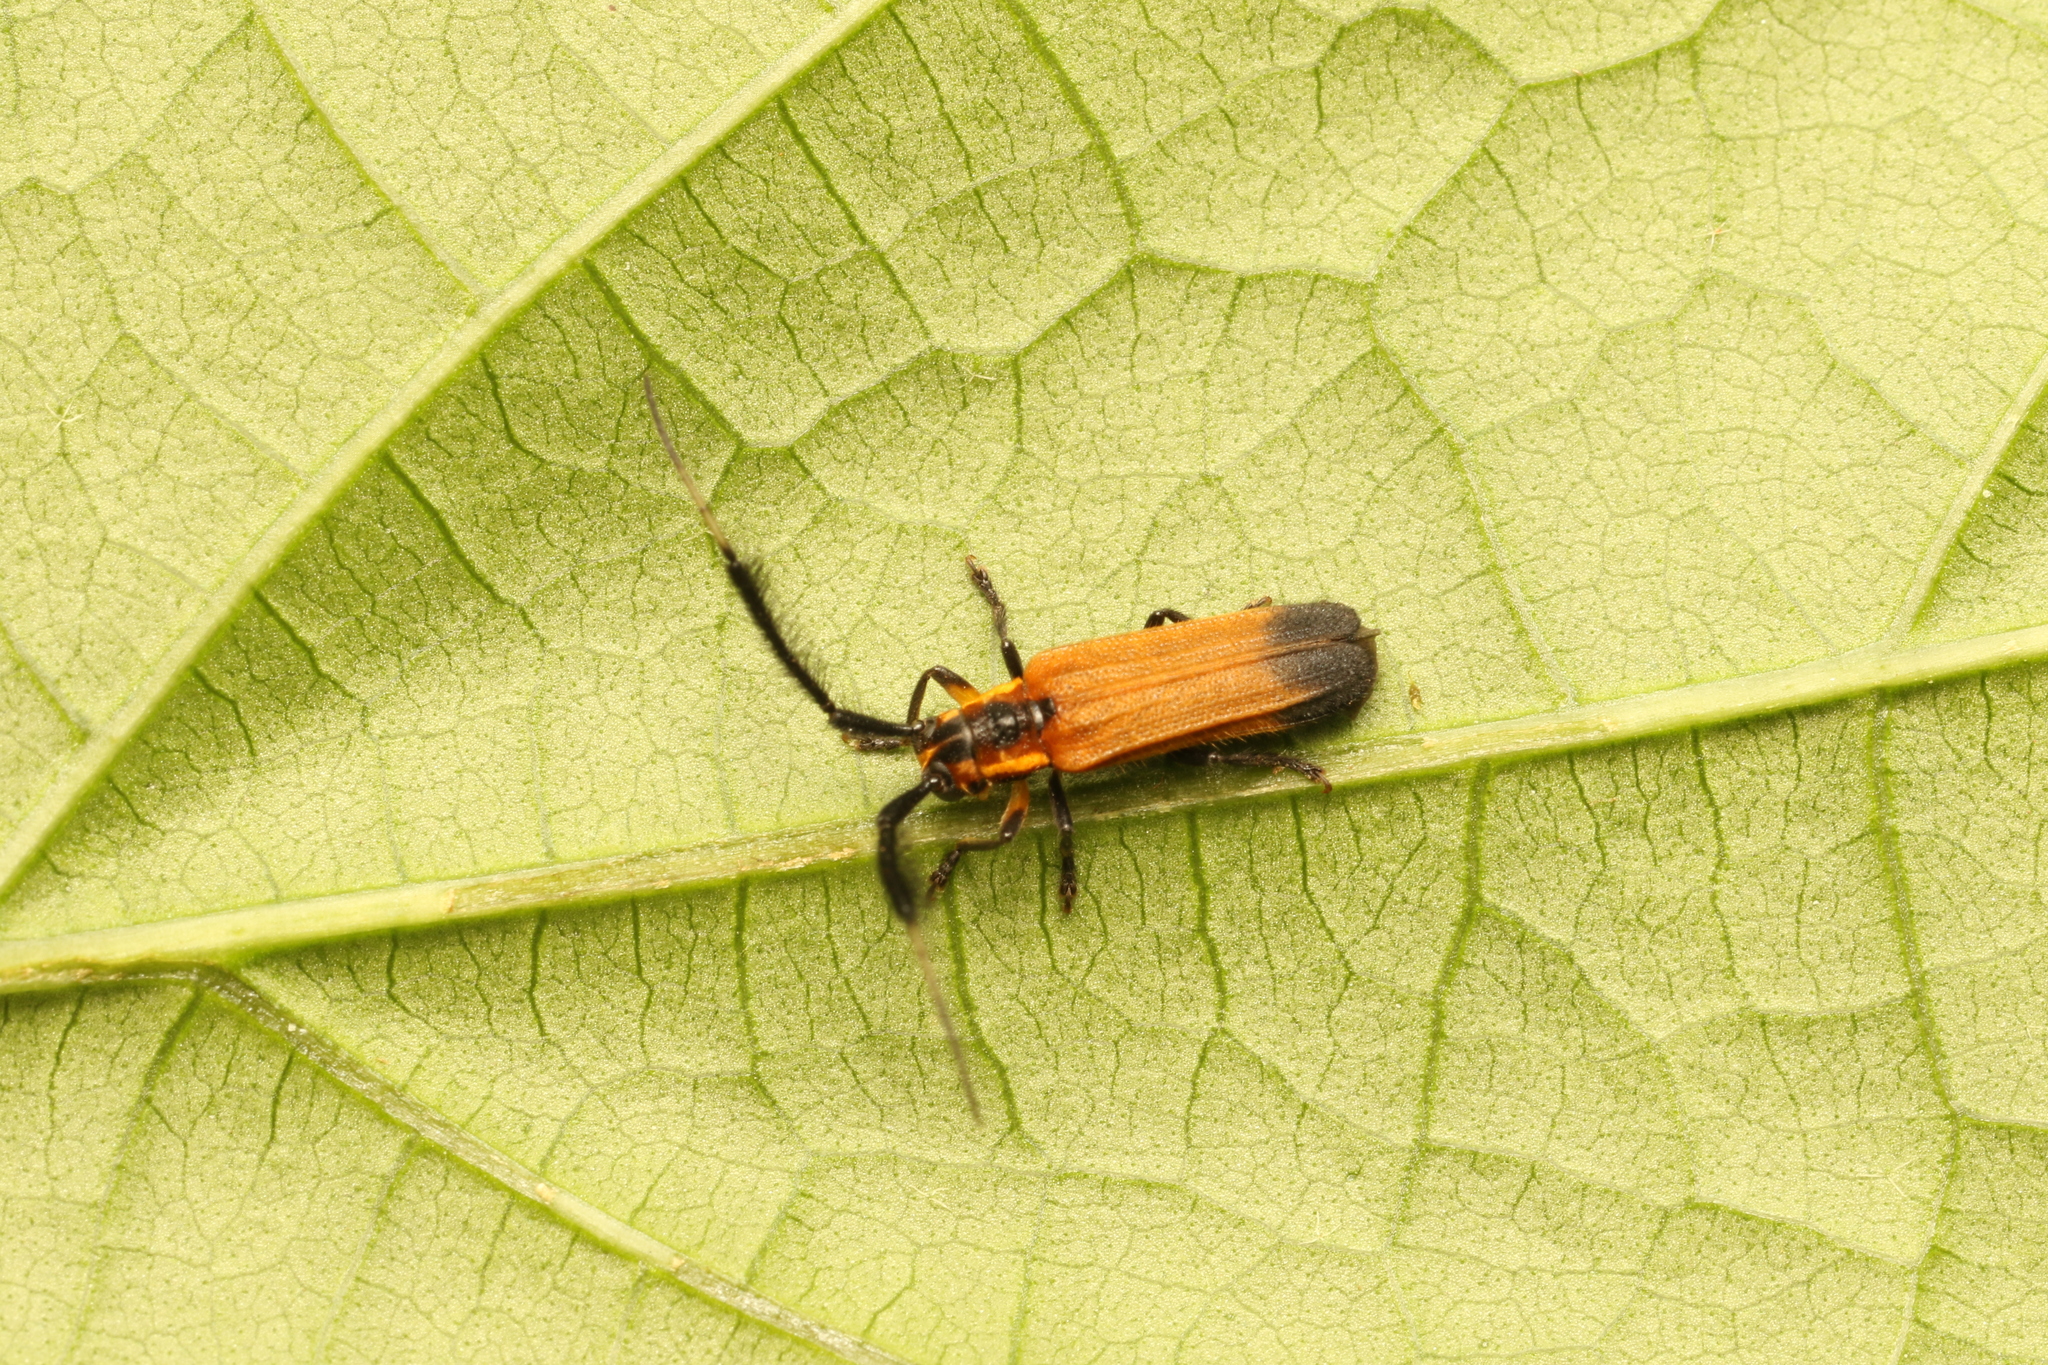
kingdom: Animalia
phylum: Arthropoda
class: Insecta
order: Coleoptera
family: Cerambycidae
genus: Malacoscylus
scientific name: Malacoscylus gonostigma
